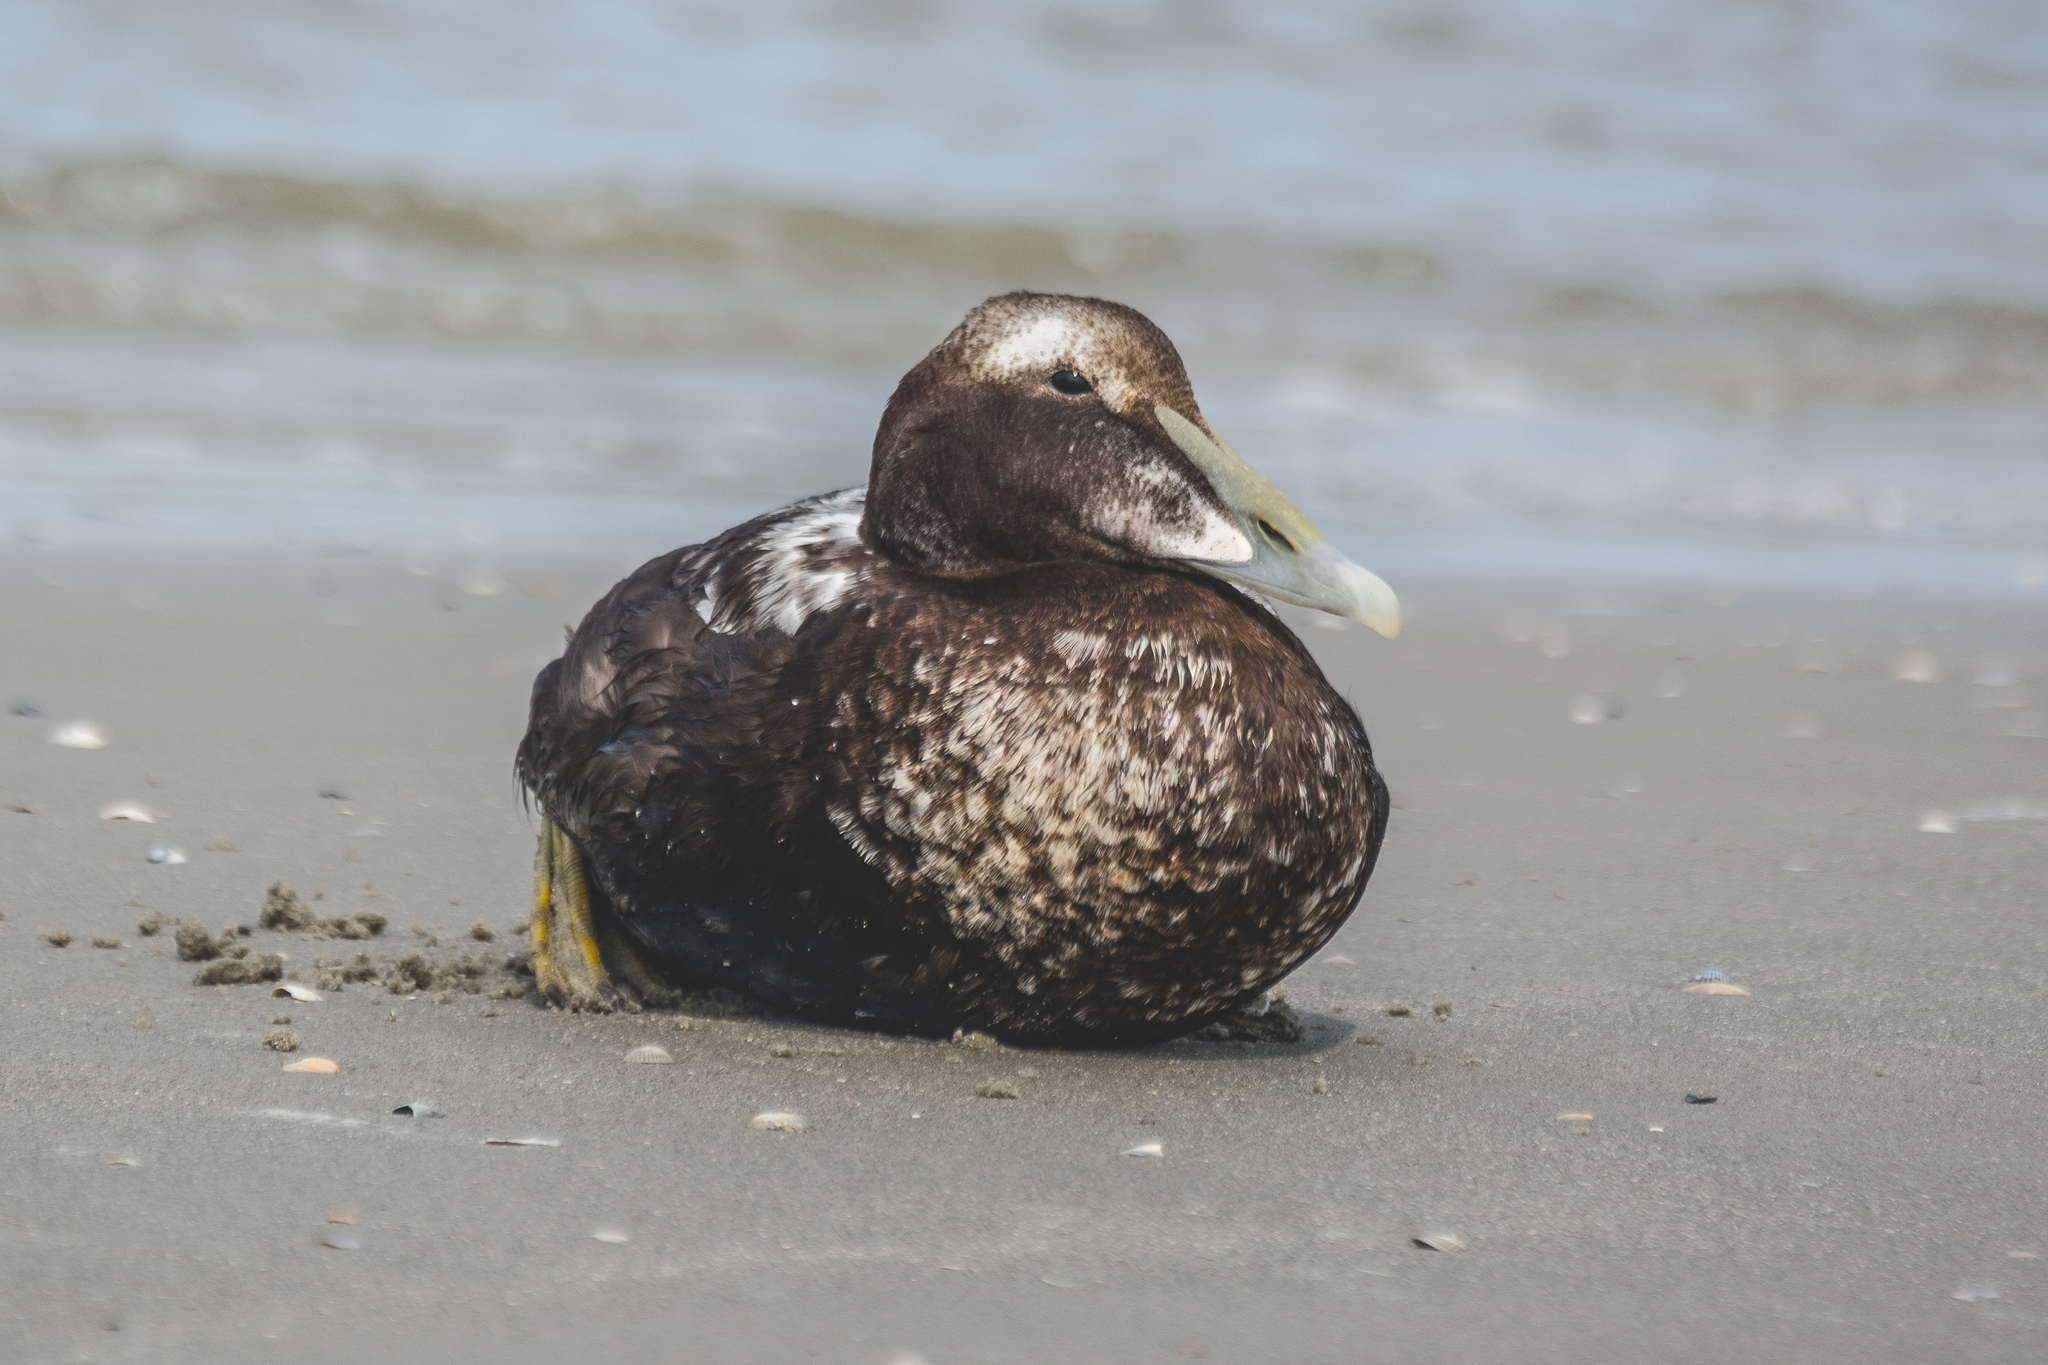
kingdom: Animalia
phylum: Chordata
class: Aves
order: Anseriformes
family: Anatidae
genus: Somateria
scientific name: Somateria mollissima
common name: Common eider
